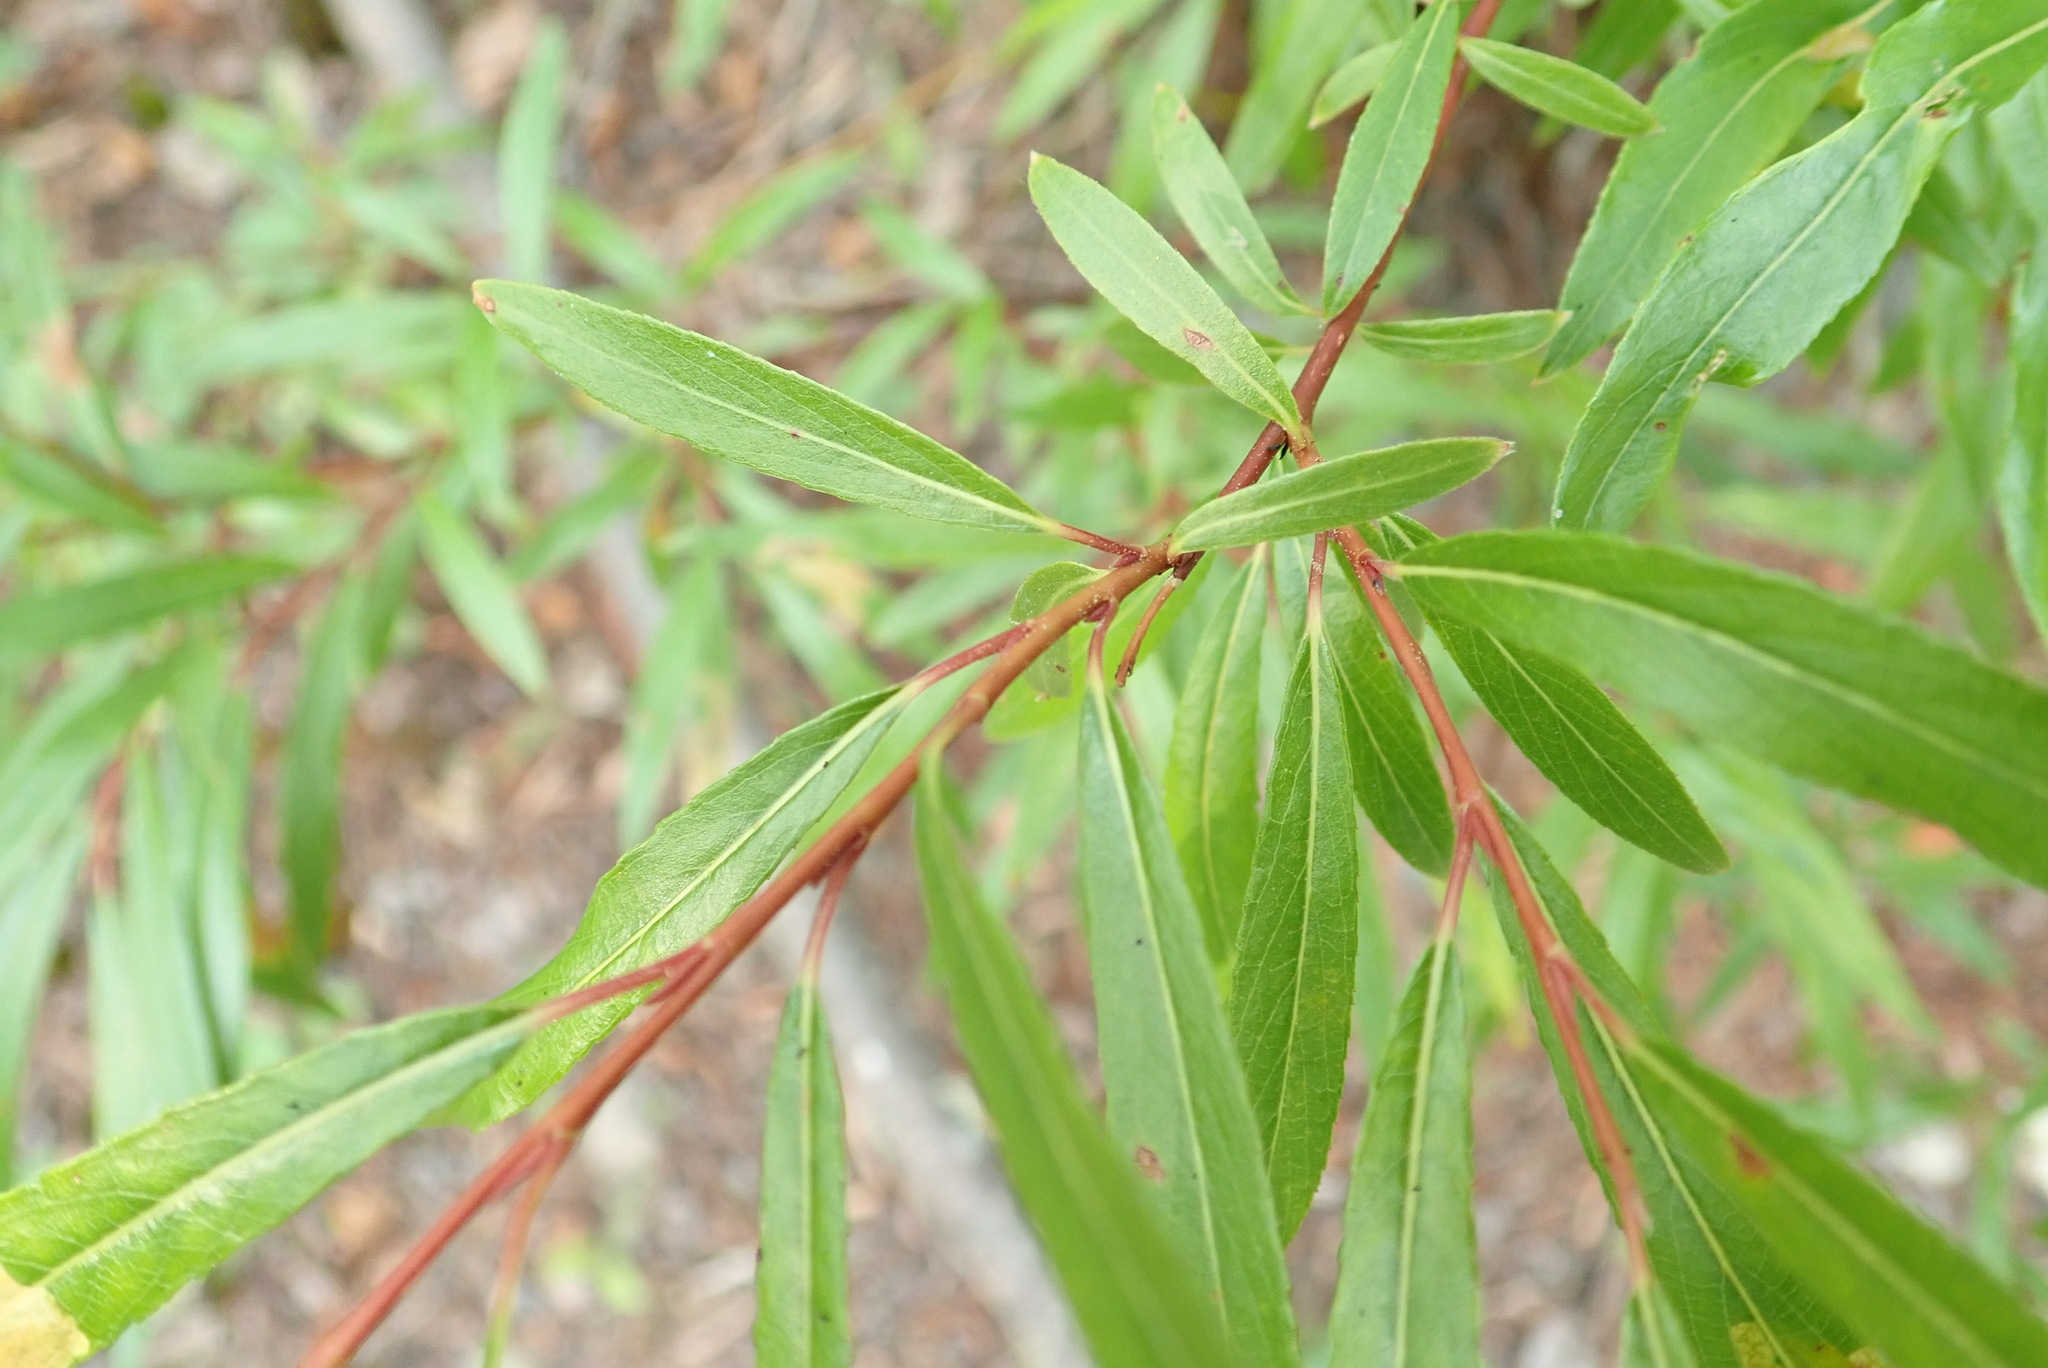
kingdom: Plantae
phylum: Tracheophyta
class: Magnoliopsida
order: Malpighiales
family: Salicaceae
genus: Salix
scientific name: Salix interior
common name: Sandbar willow
